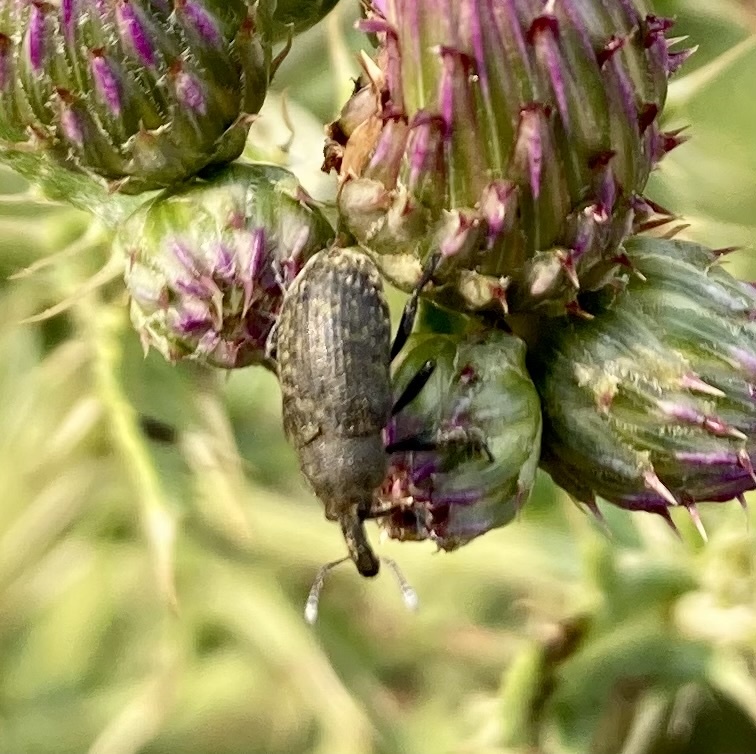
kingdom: Animalia
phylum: Arthropoda
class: Insecta
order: Coleoptera
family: Curculionidae
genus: Larinus
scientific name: Larinus carlinae
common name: Weevil
